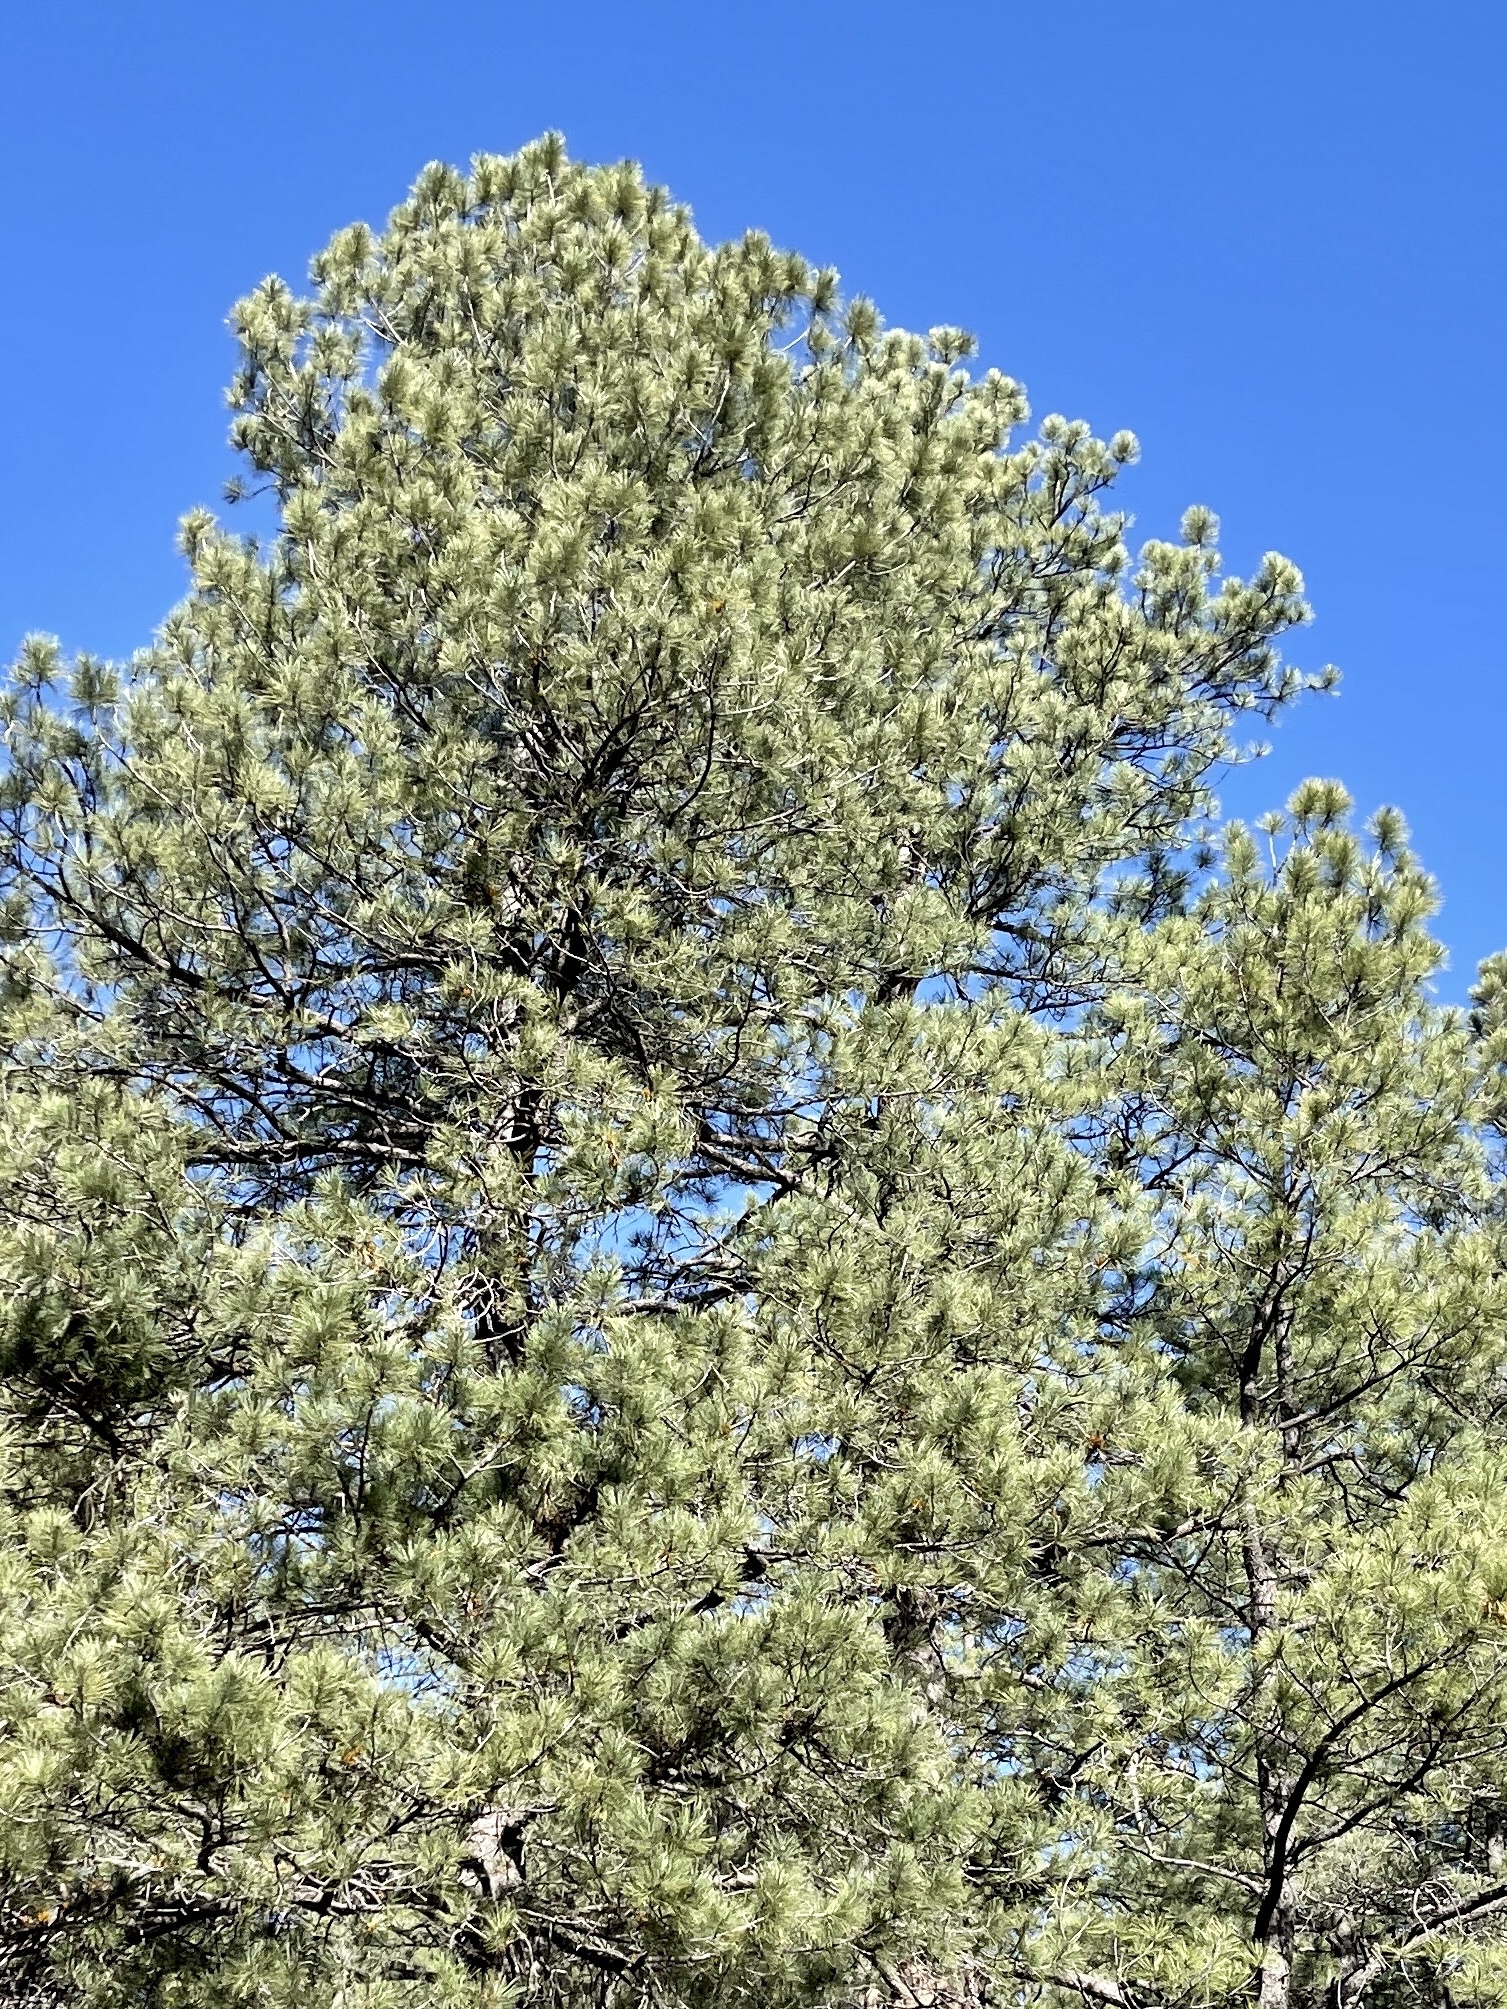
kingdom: Plantae
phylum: Tracheophyta
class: Pinopsida
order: Pinales
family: Pinaceae
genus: Pinus
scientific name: Pinus ponderosa
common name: Western yellow-pine
